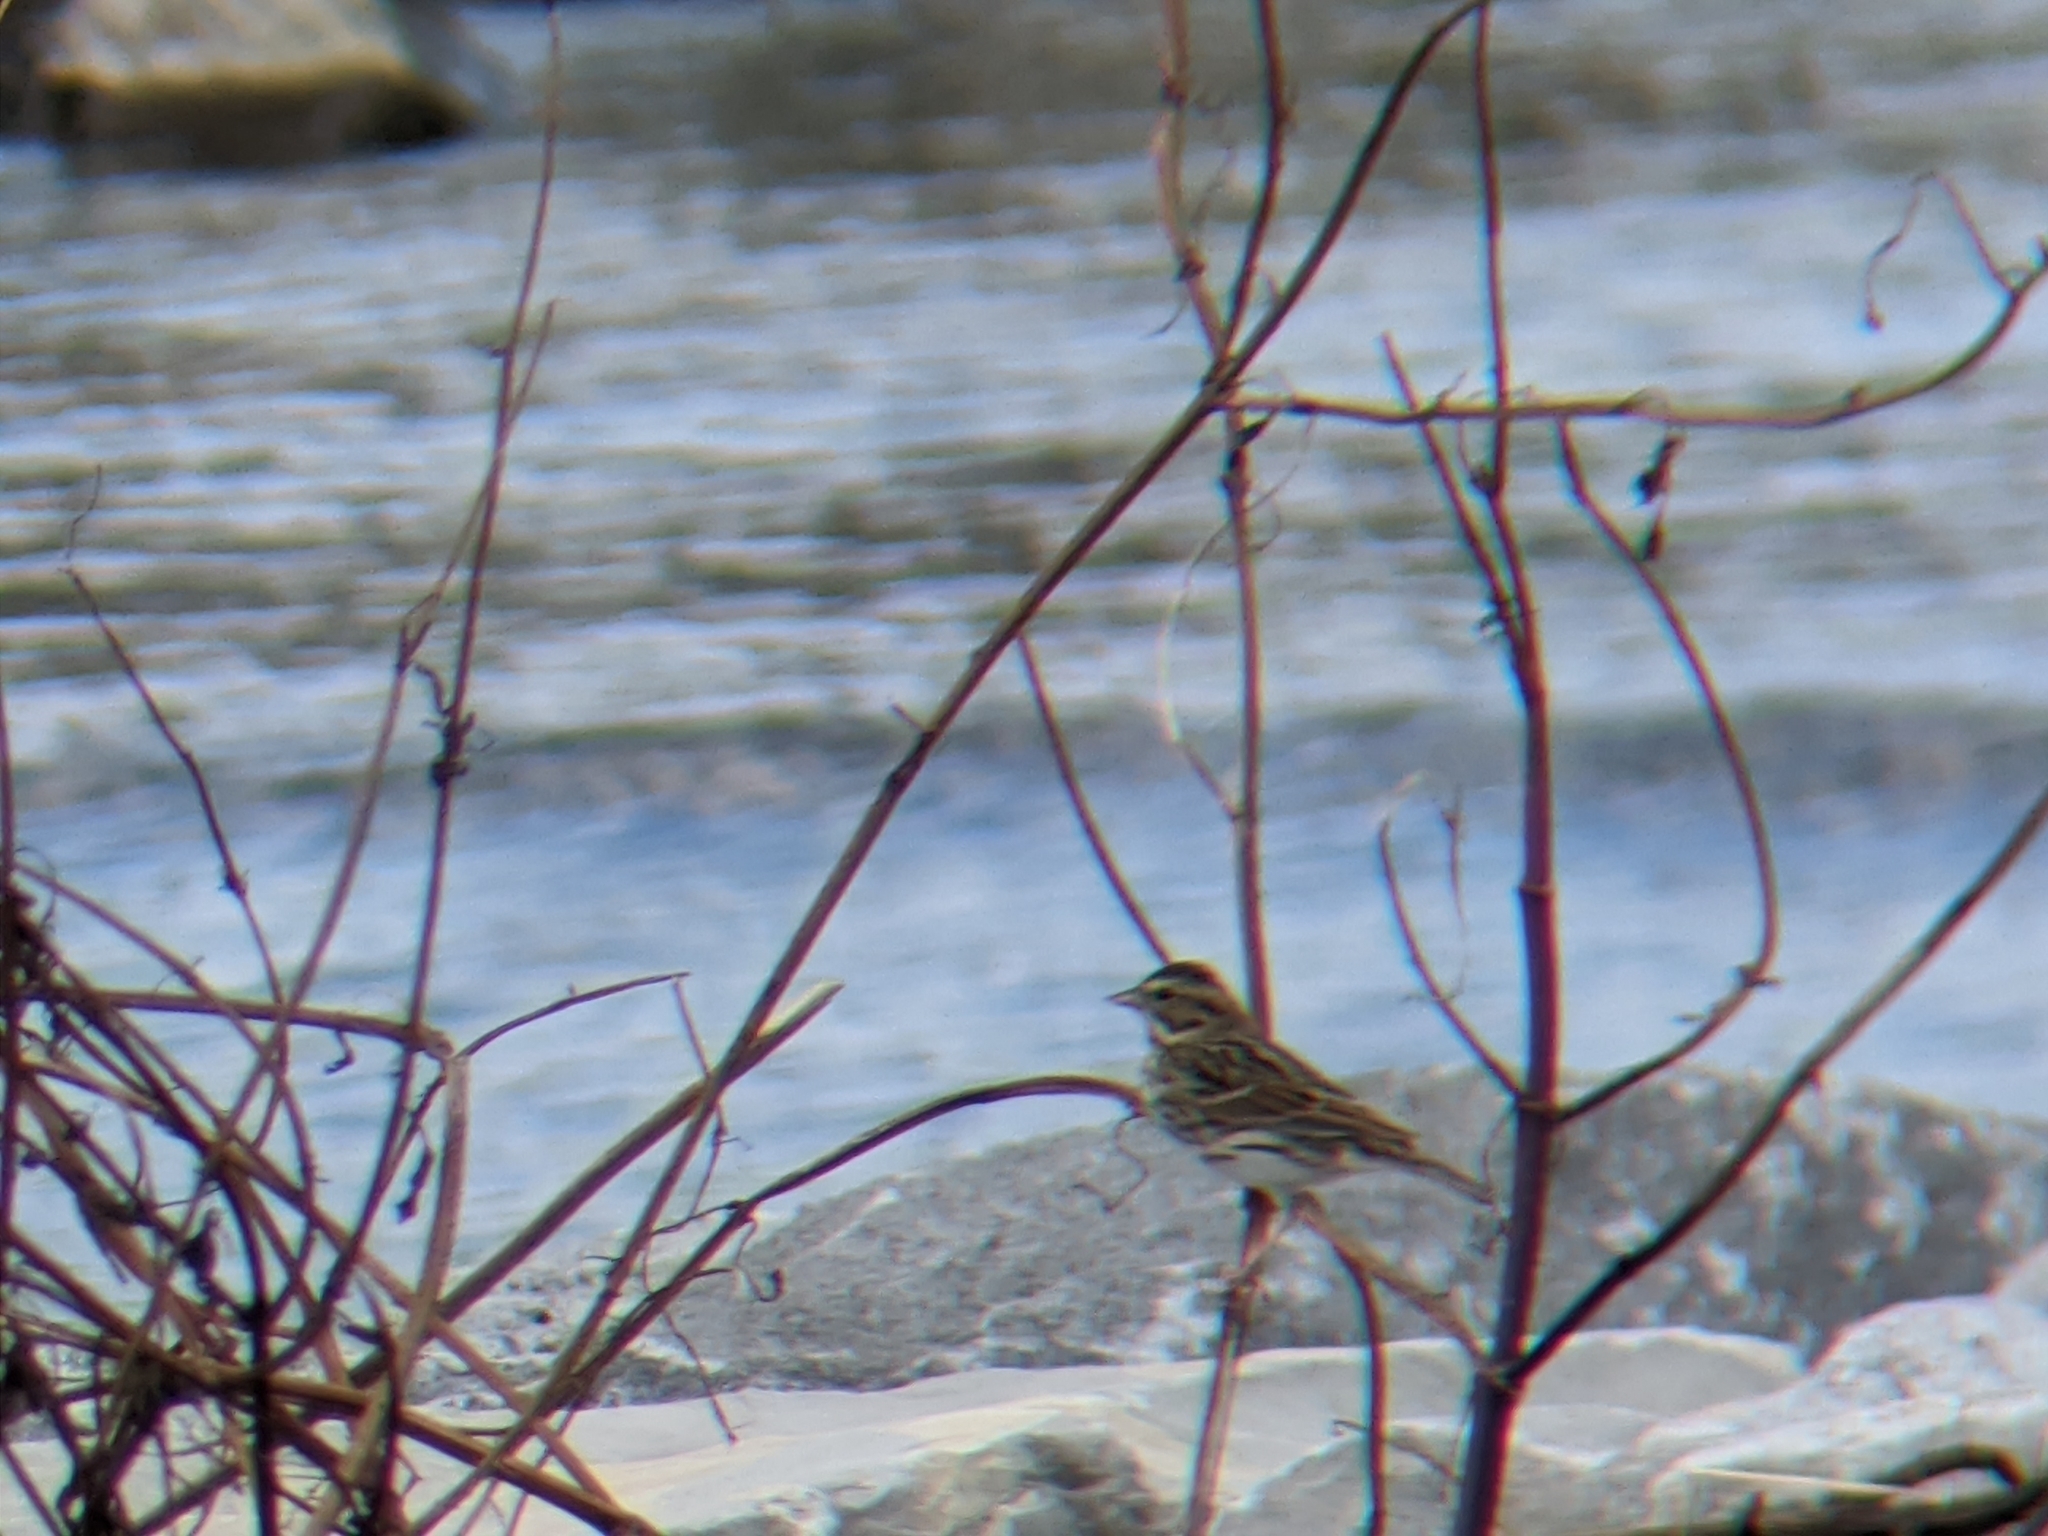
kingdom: Animalia
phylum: Chordata
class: Aves
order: Passeriformes
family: Passerellidae
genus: Passerculus
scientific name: Passerculus sandwichensis
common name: Savannah sparrow
